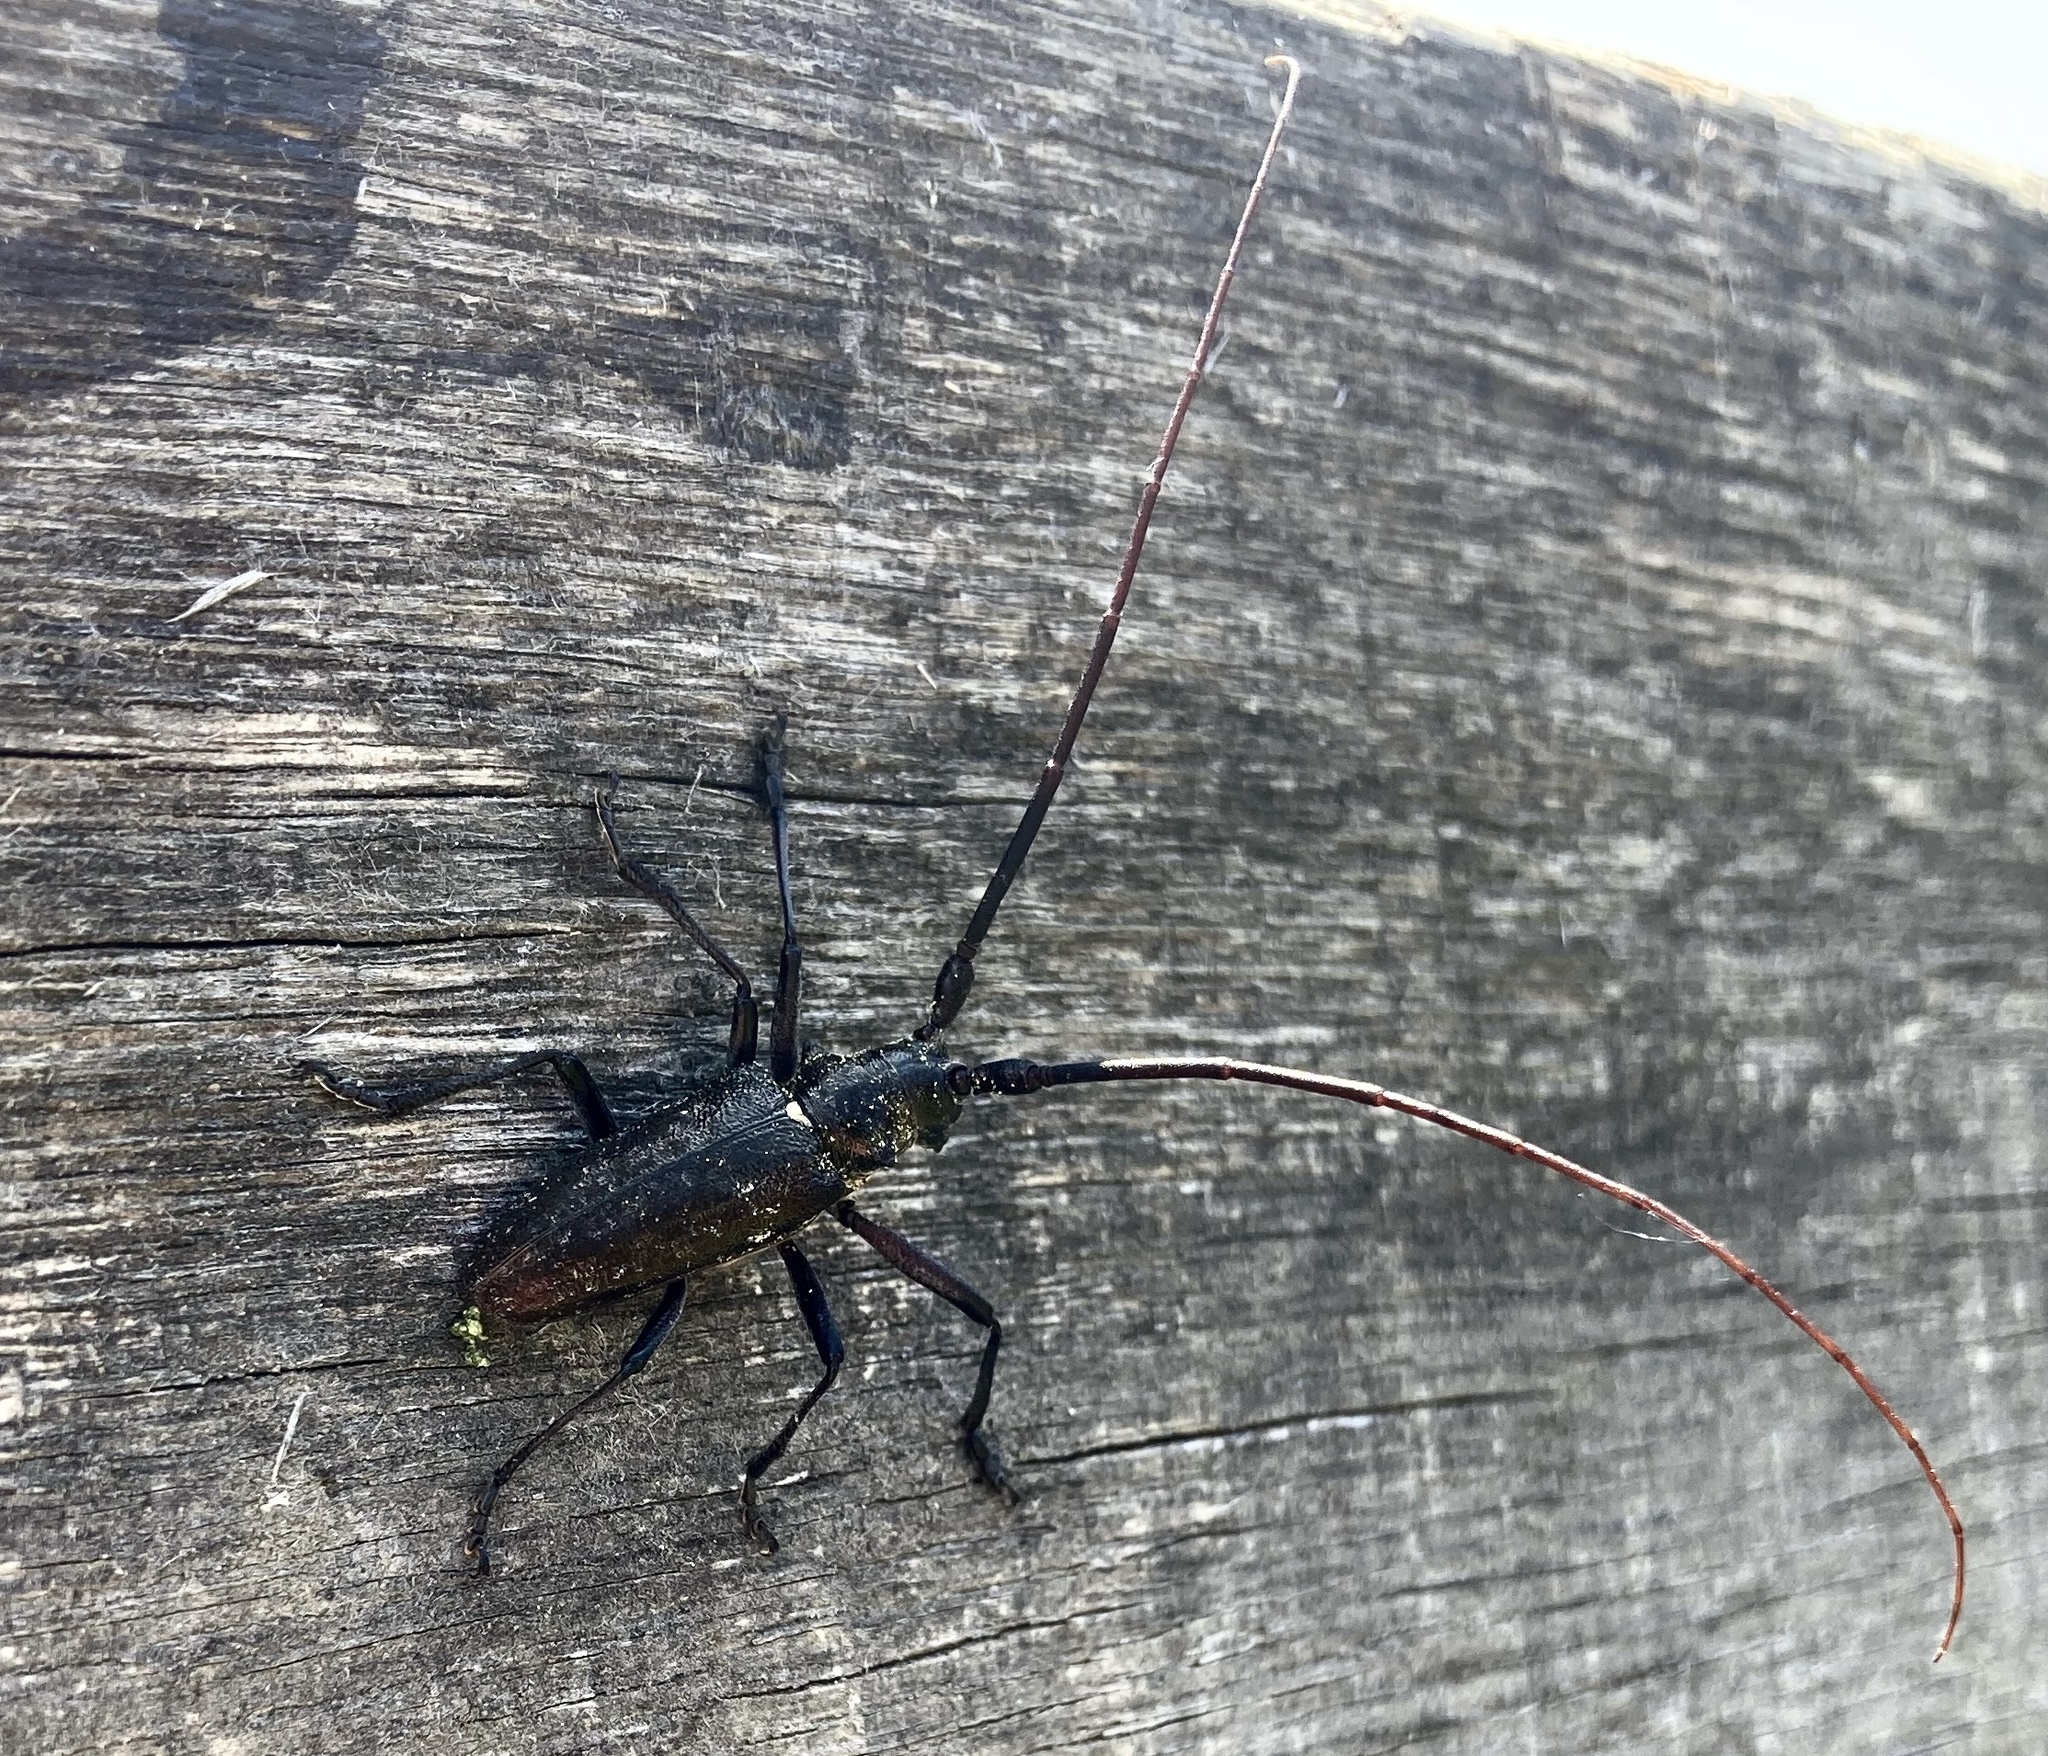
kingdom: Animalia
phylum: Arthropoda
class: Insecta
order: Coleoptera
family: Cerambycidae
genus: Monochamus
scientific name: Monochamus scutellatus
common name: White-spotted sawyer beetle
